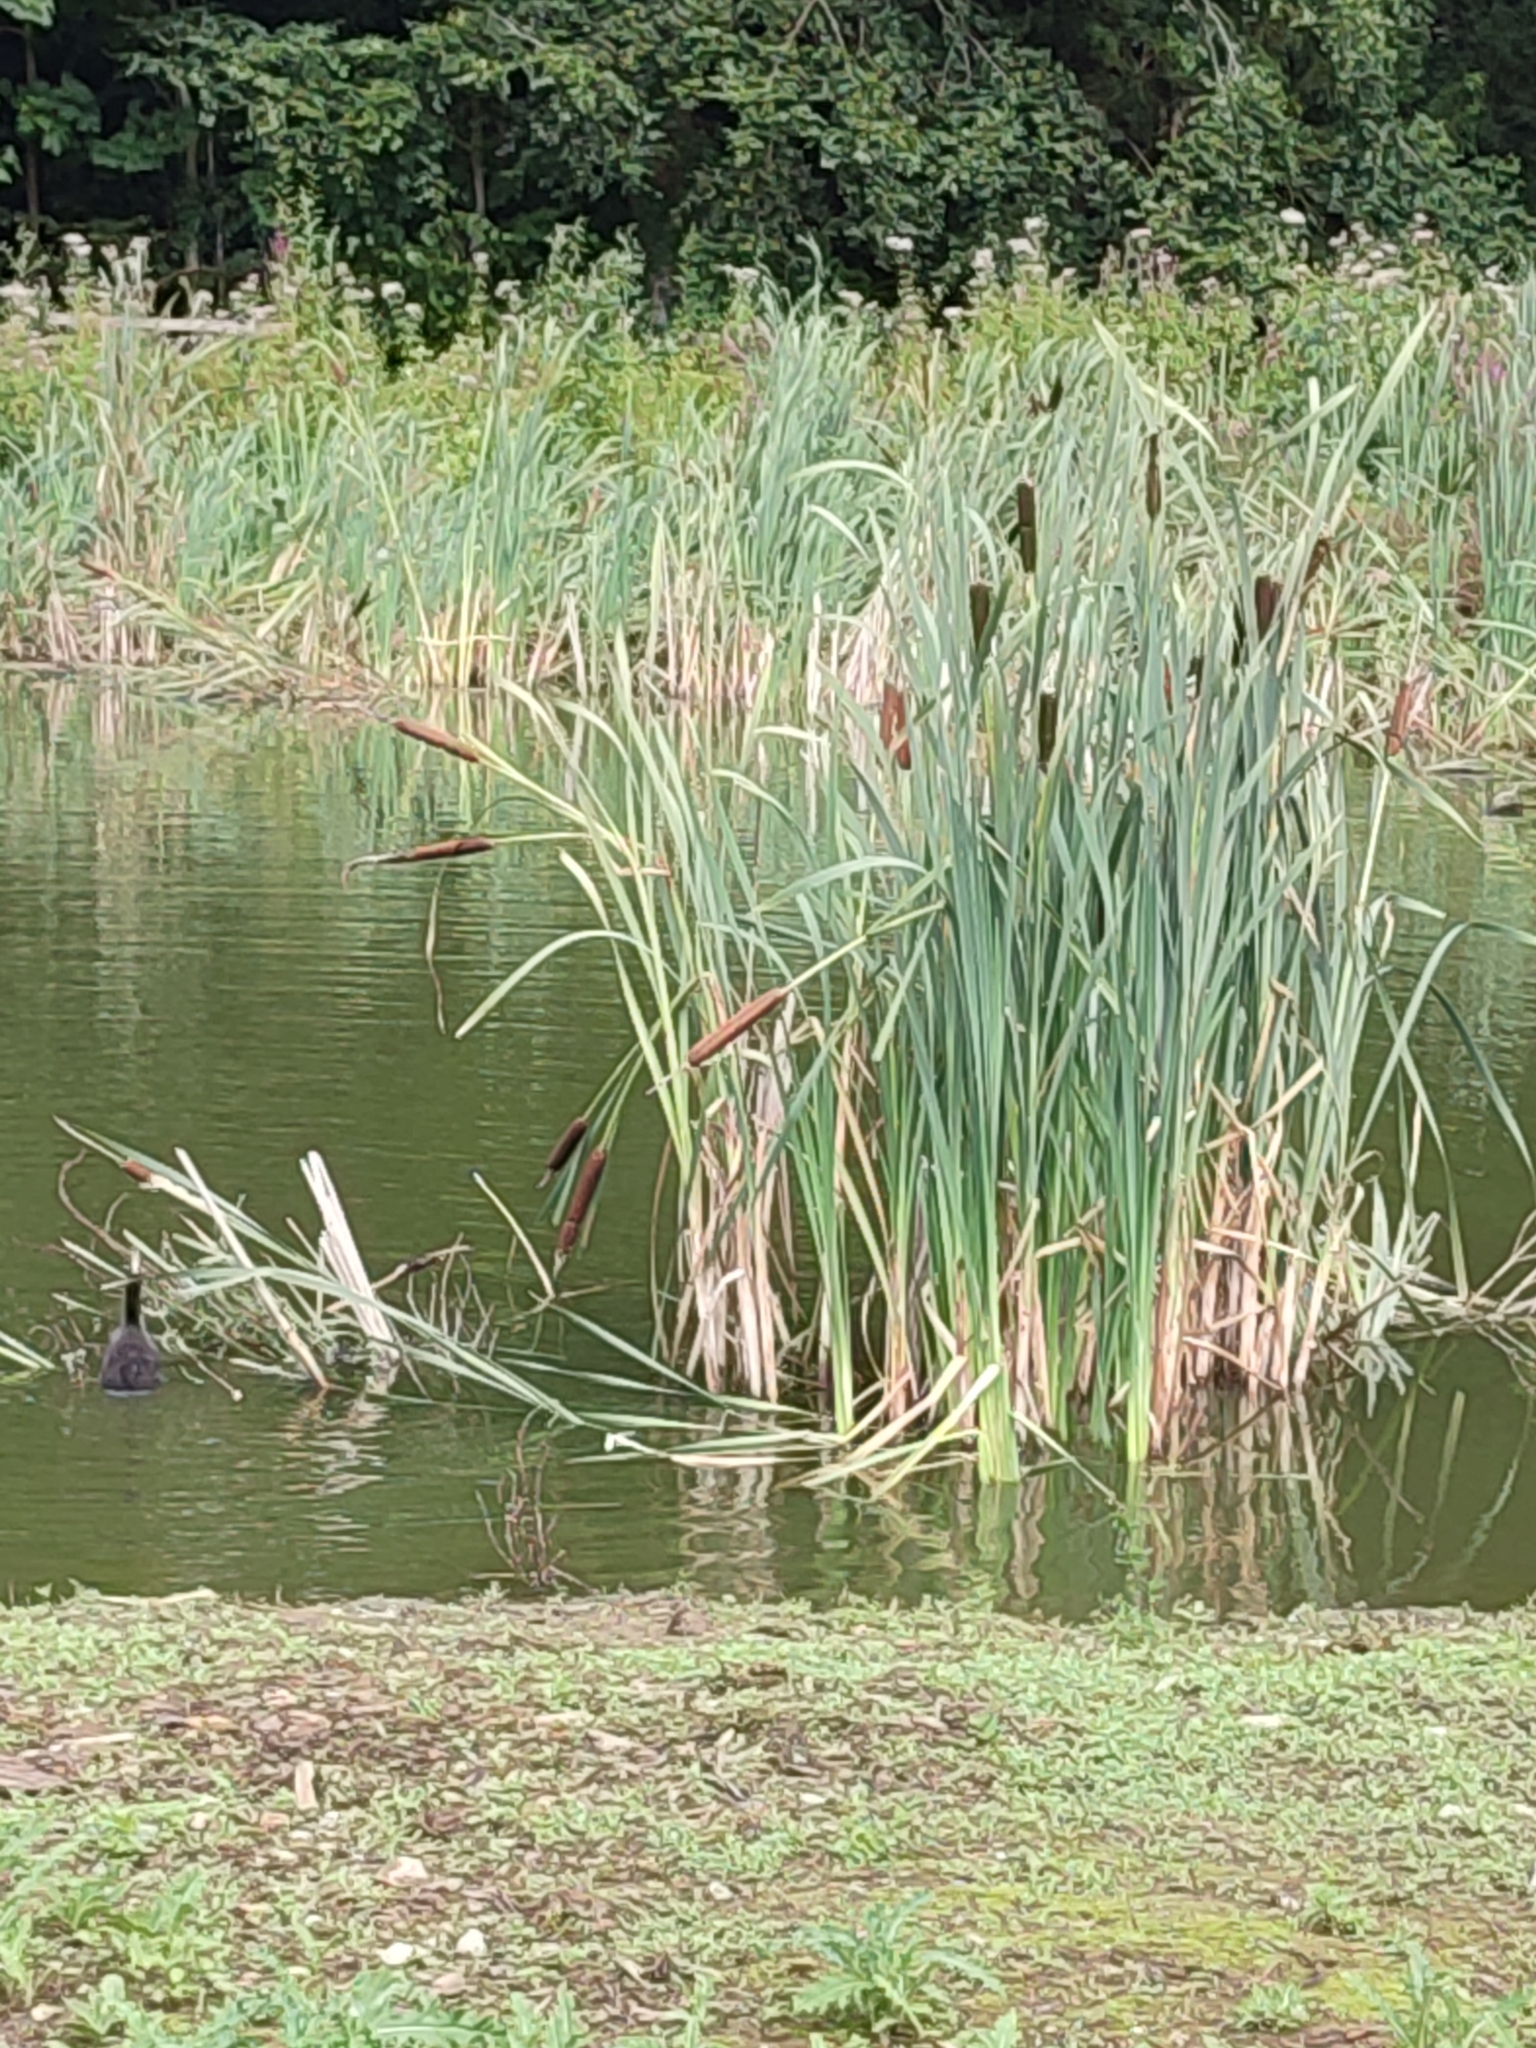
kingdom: Plantae
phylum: Tracheophyta
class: Liliopsida
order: Poales
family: Typhaceae
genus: Typha
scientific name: Typha latifolia
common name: Broadleaf cattail
